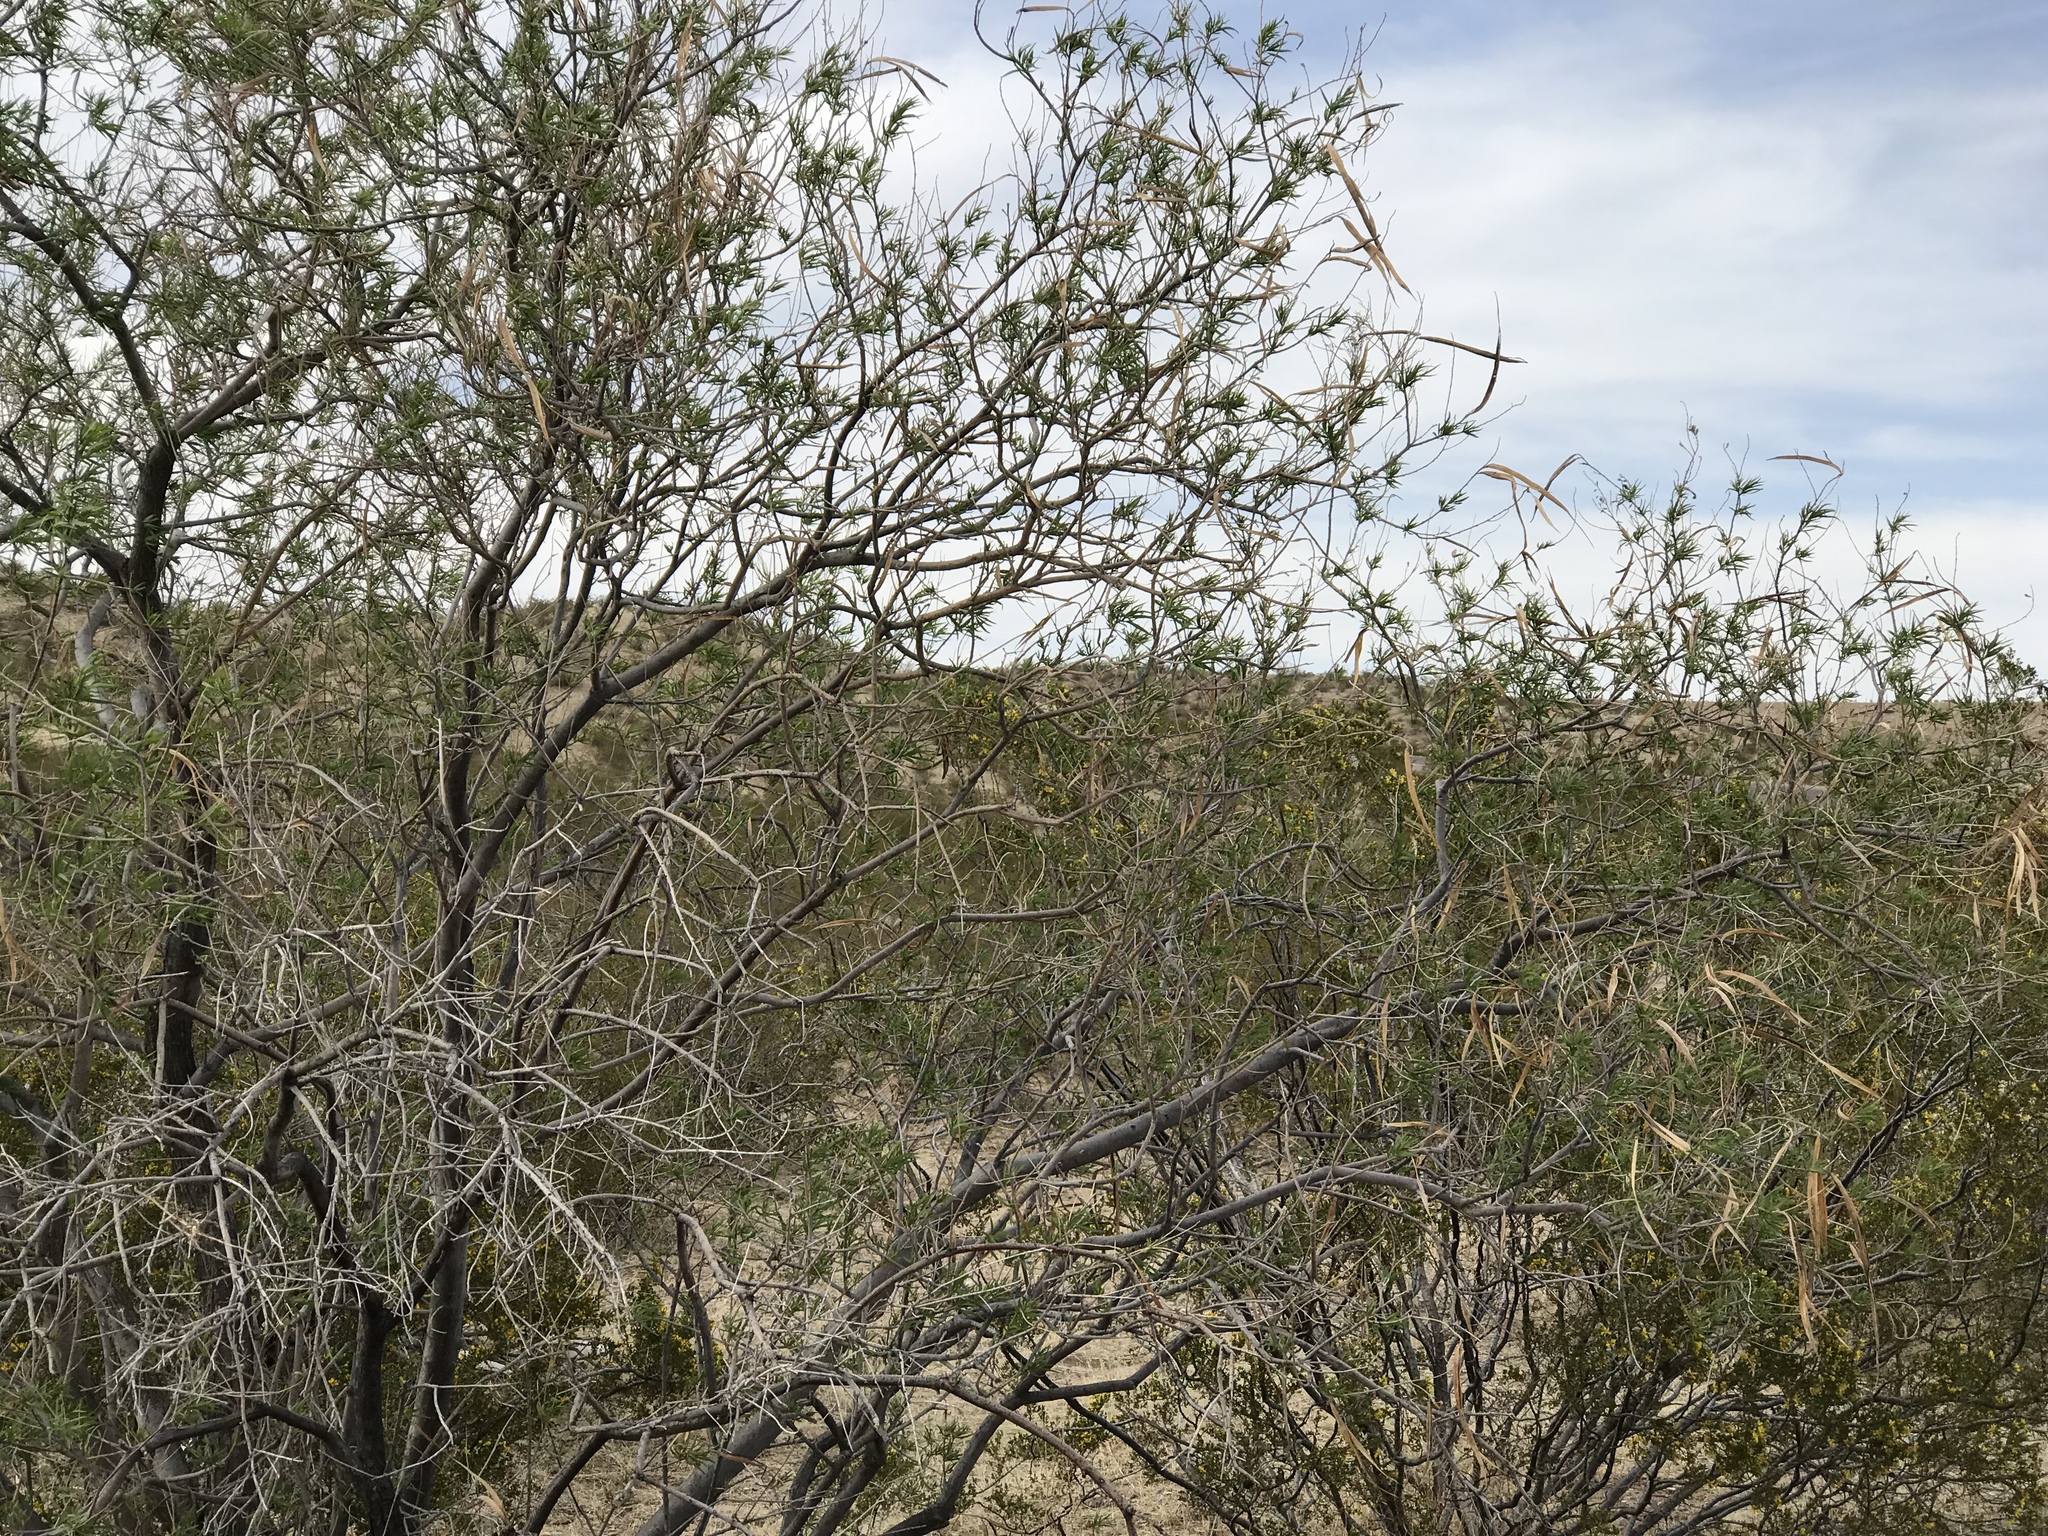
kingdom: Plantae
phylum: Tracheophyta
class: Magnoliopsida
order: Lamiales
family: Bignoniaceae
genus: Chilopsis
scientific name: Chilopsis linearis
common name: Desert-willow
